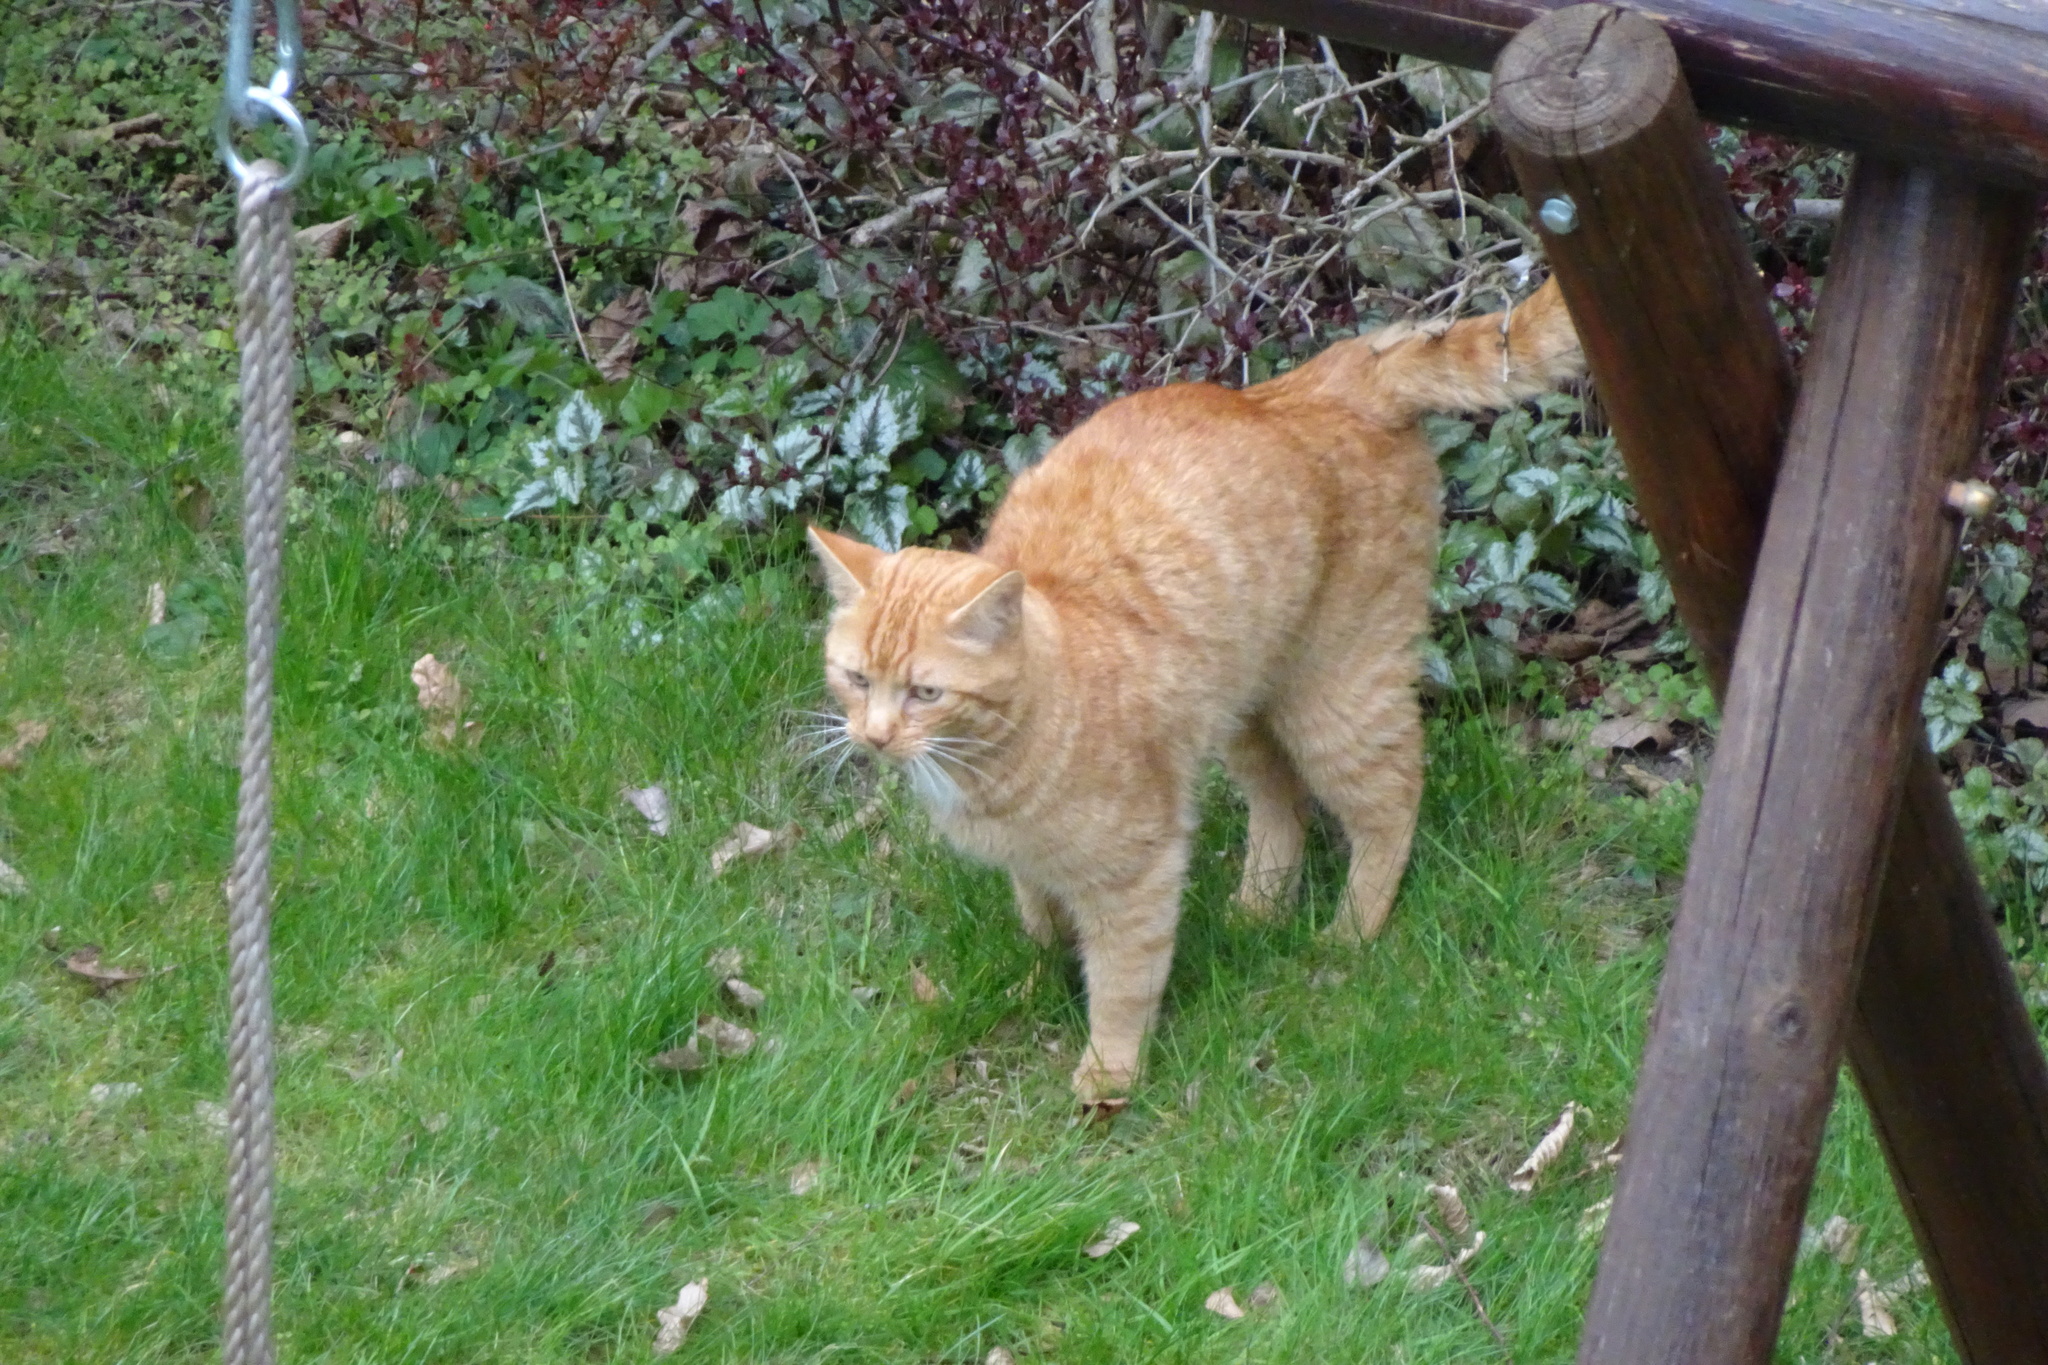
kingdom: Animalia
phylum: Chordata
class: Mammalia
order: Carnivora
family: Felidae
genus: Felis
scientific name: Felis catus
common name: Domestic cat
